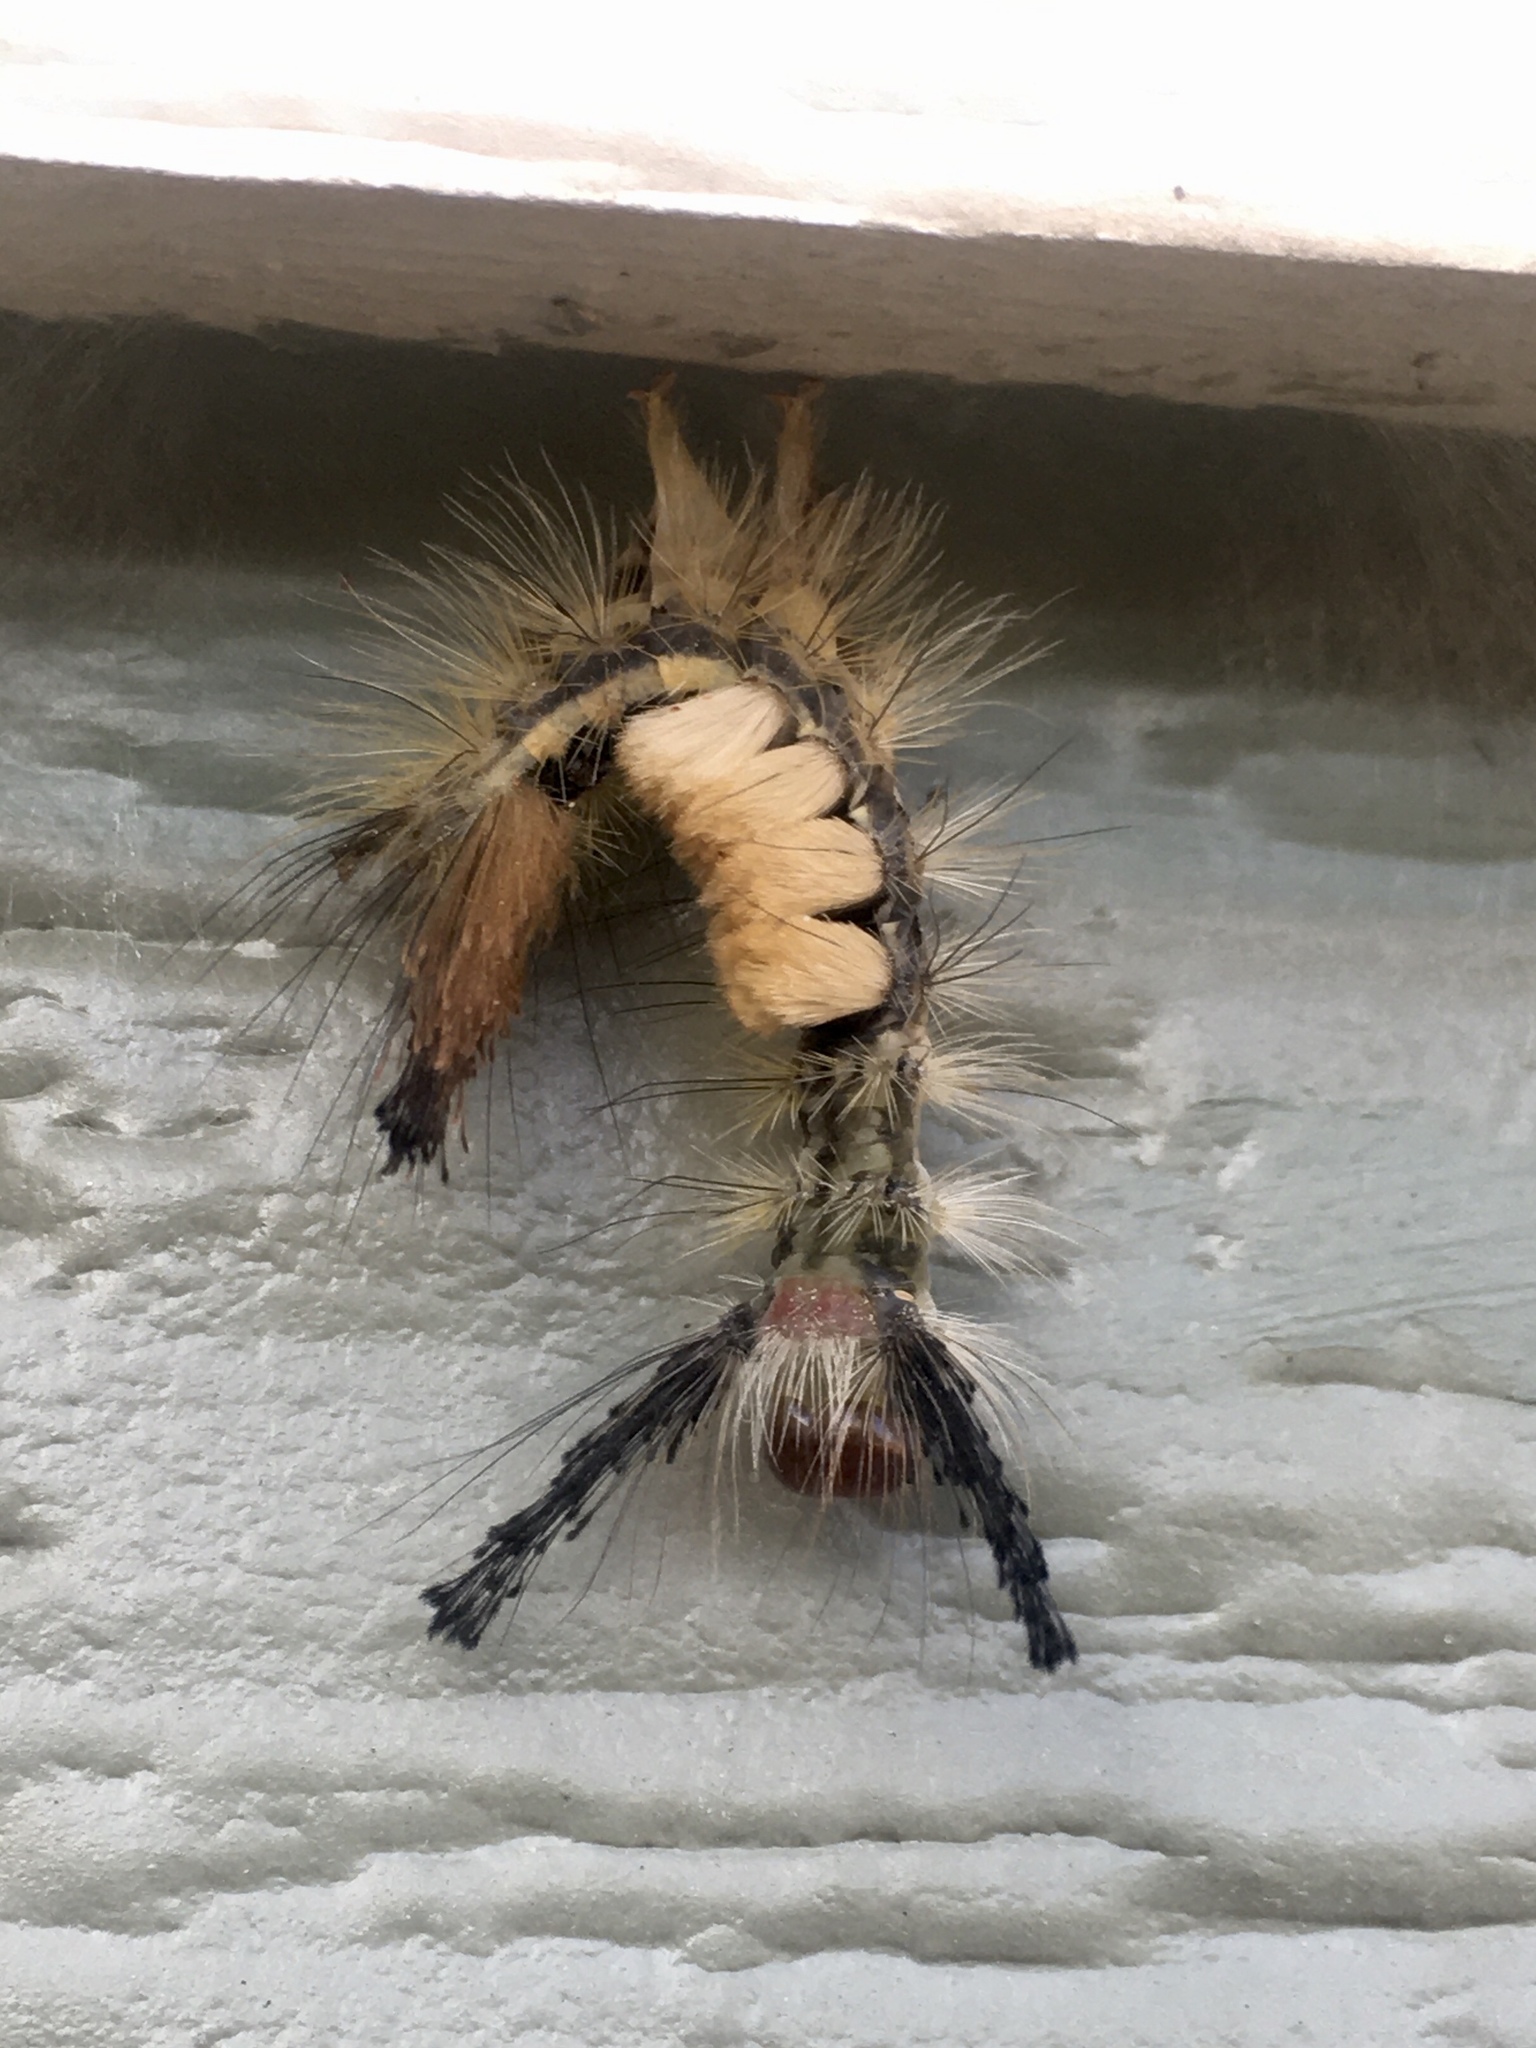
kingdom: Animalia
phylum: Arthropoda
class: Insecta
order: Lepidoptera
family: Erebidae
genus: Orgyia
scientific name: Orgyia leucostigma
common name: White-marked tussock moth
